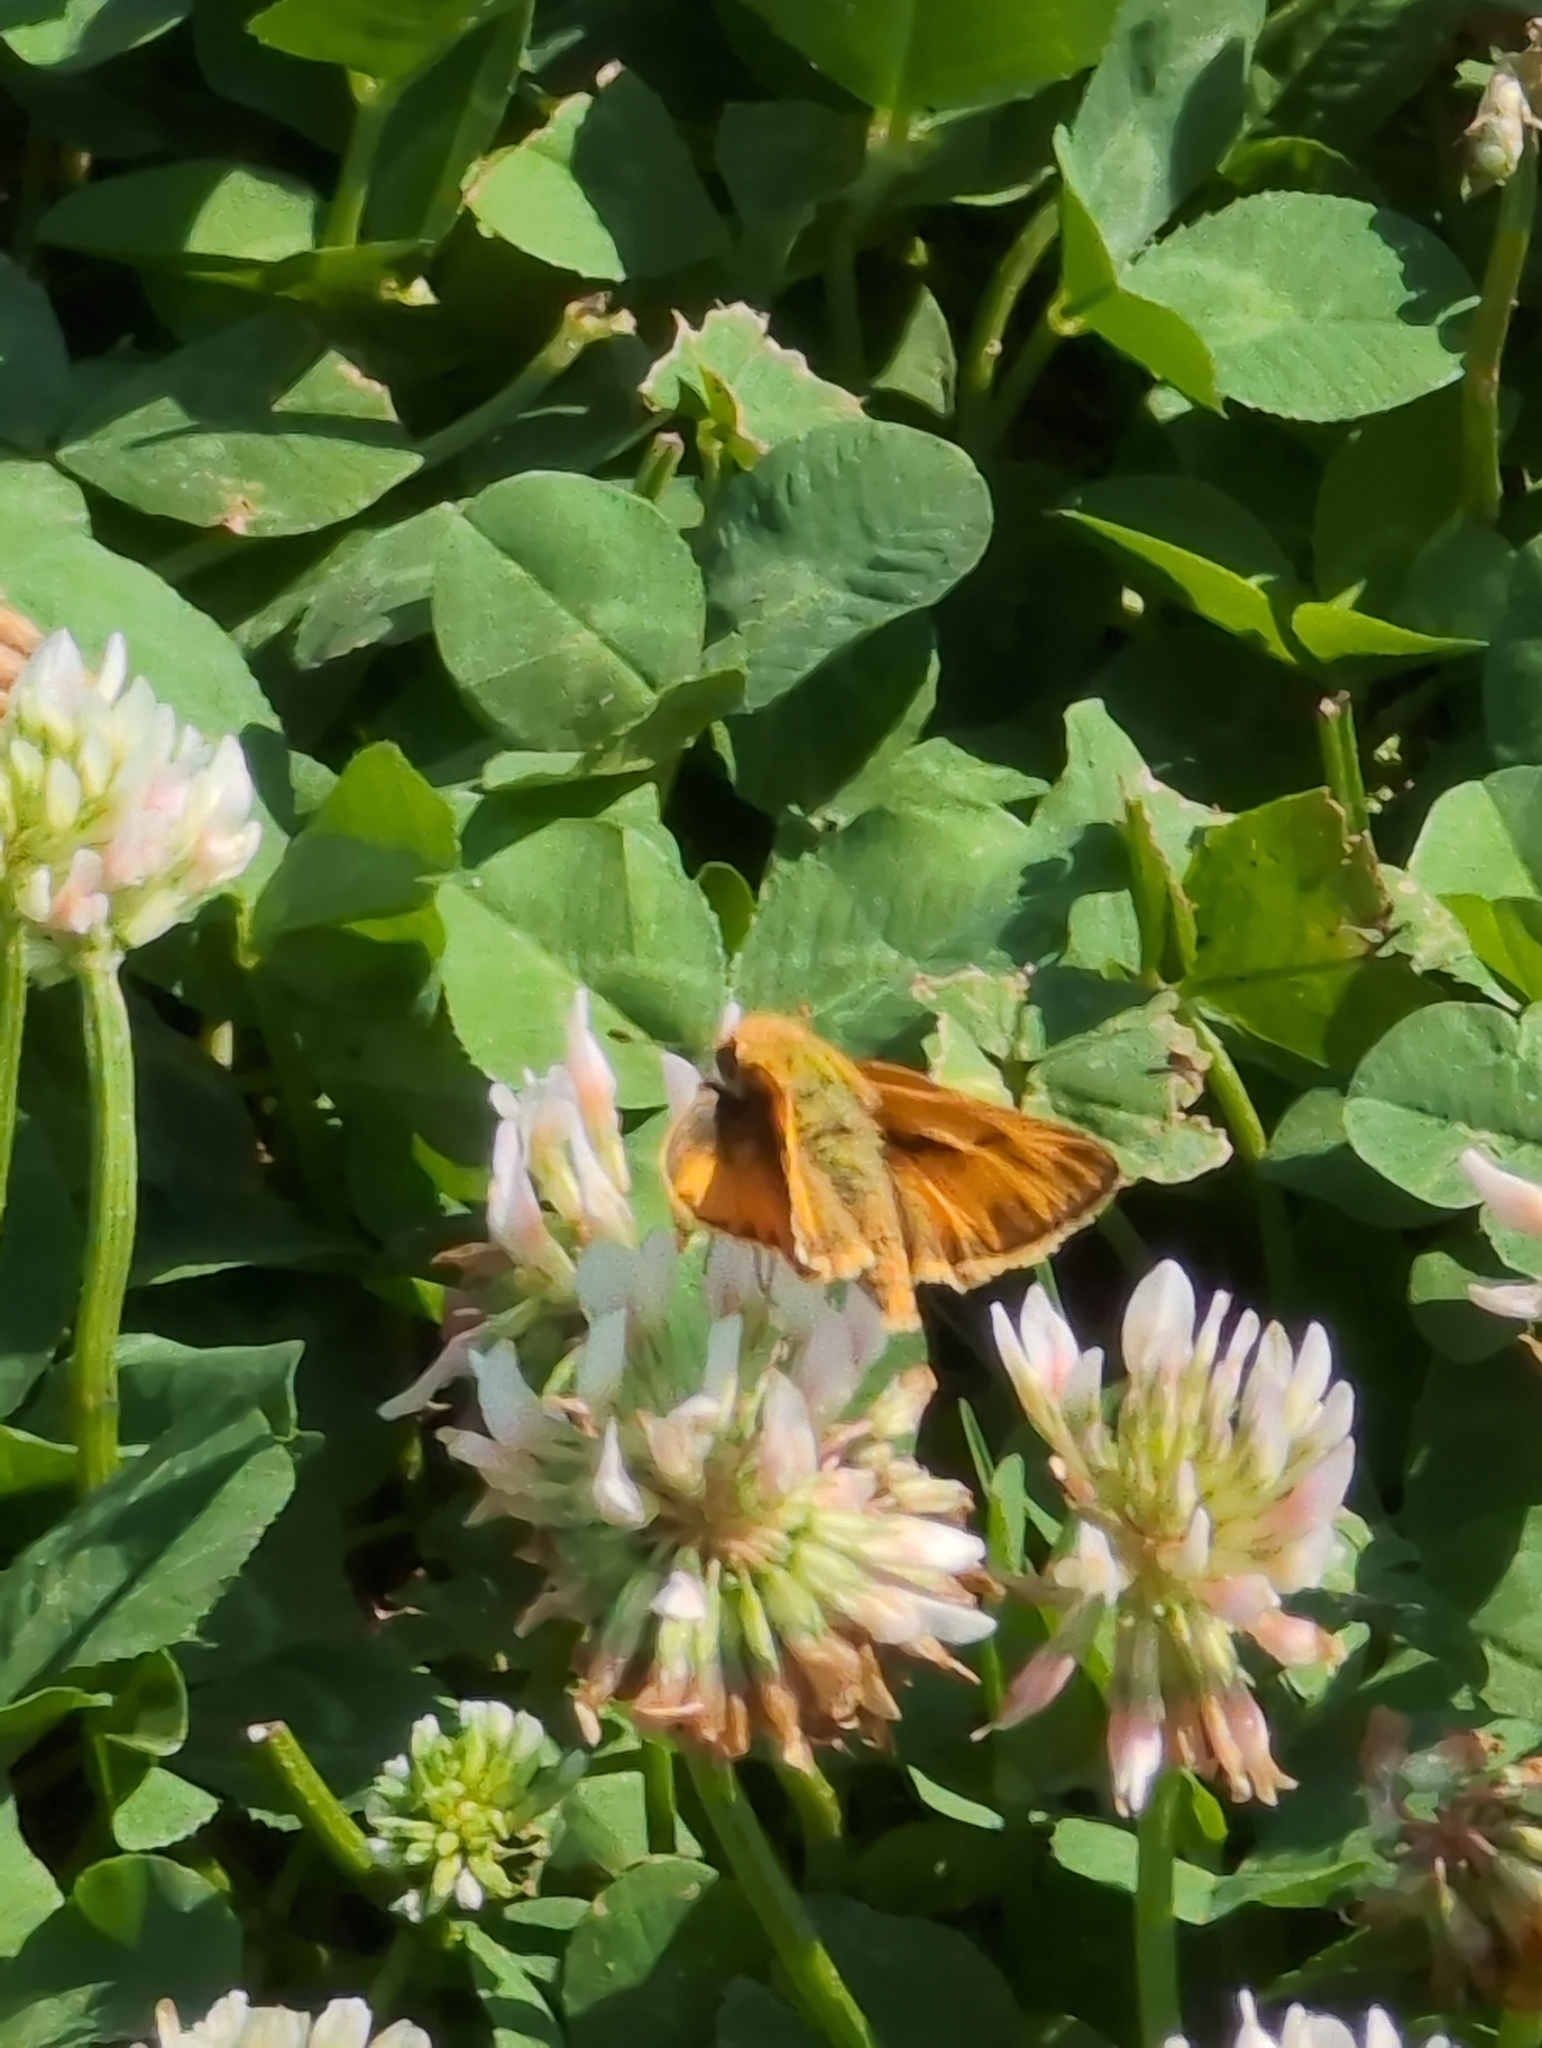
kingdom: Animalia
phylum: Arthropoda
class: Insecta
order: Lepidoptera
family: Hesperiidae
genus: Hylephila
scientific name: Hylephila phyleus
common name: Fiery skipper
